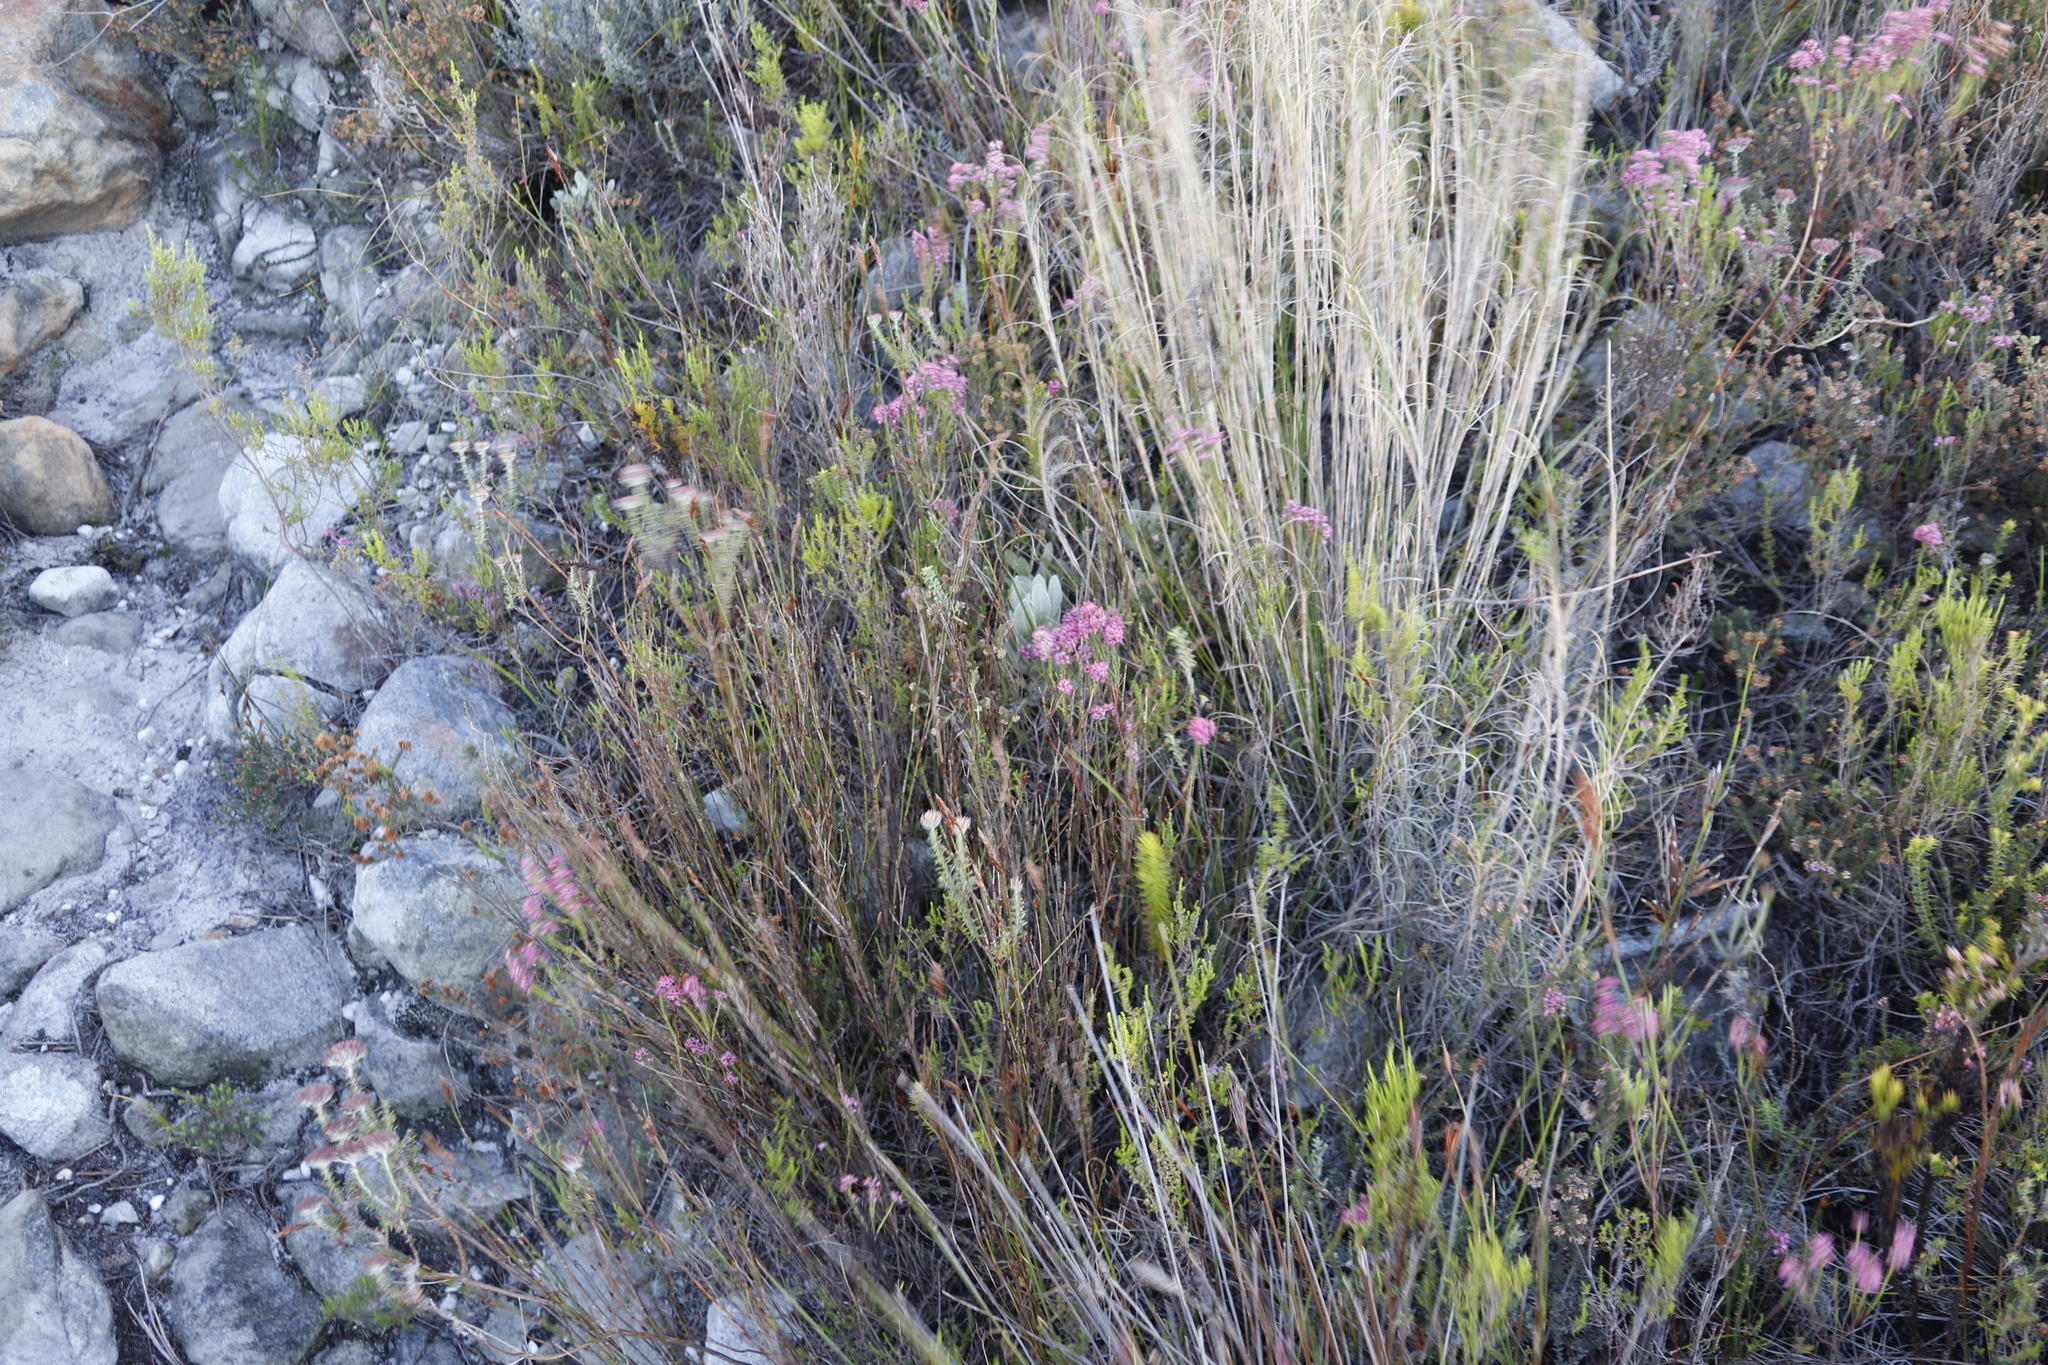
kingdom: Plantae
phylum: Tracheophyta
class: Magnoliopsida
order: Ericales
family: Ericaceae
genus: Erica
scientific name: Erica corifolia
